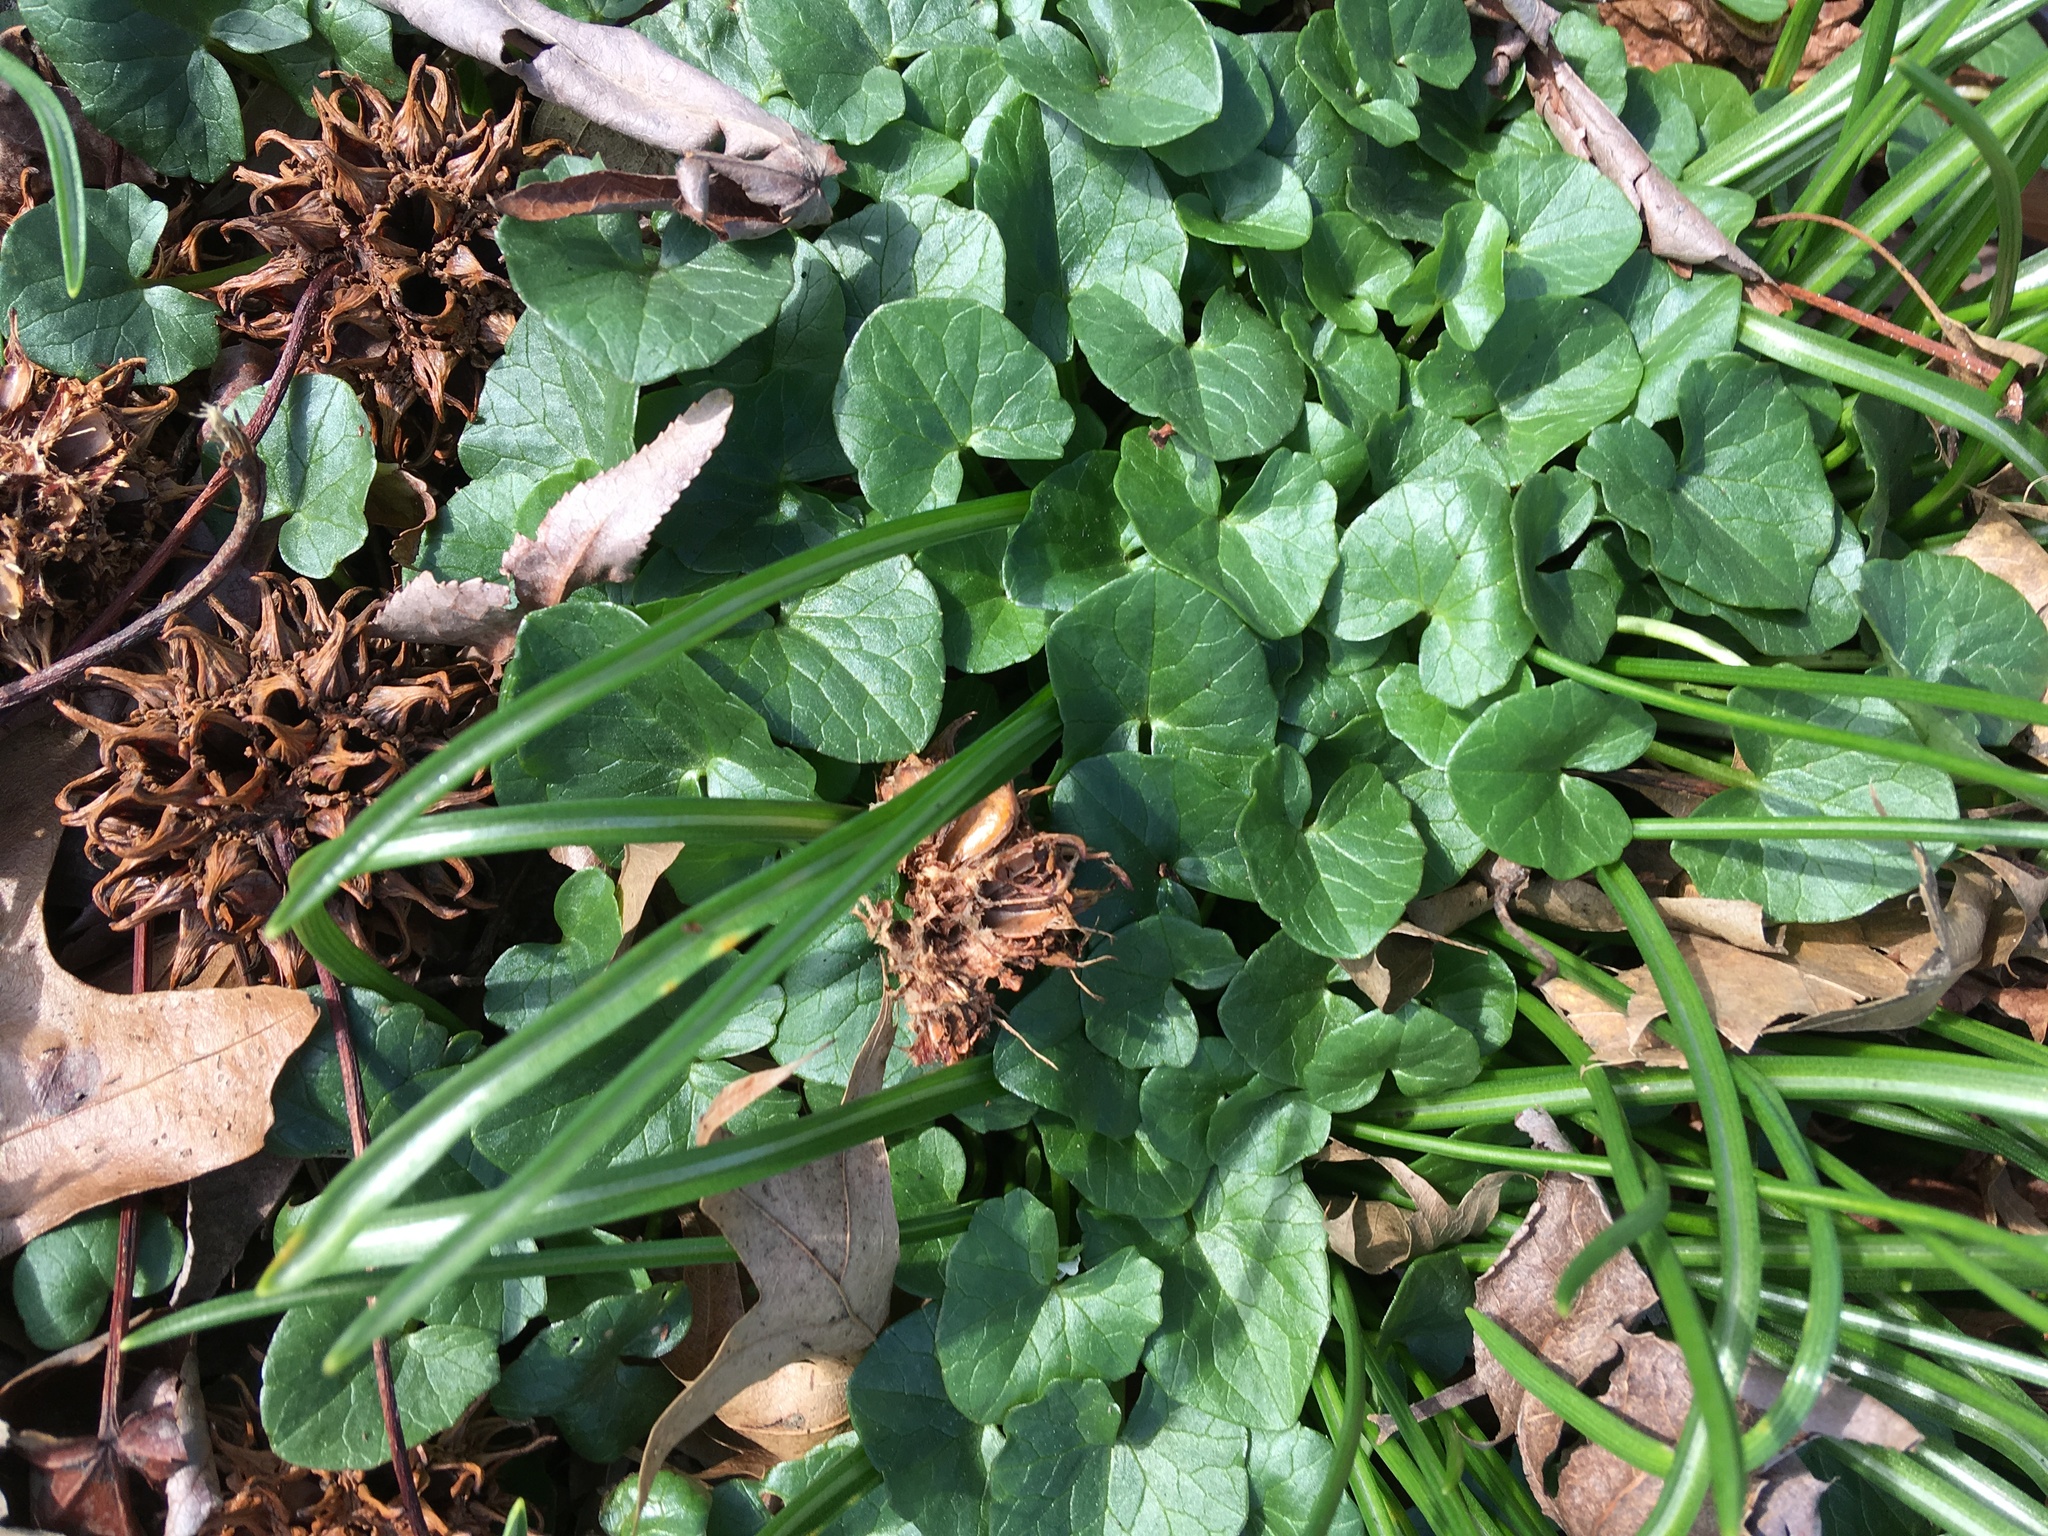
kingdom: Plantae
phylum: Tracheophyta
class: Magnoliopsida
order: Ranunculales
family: Ranunculaceae
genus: Ficaria
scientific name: Ficaria verna
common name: Lesser celandine
